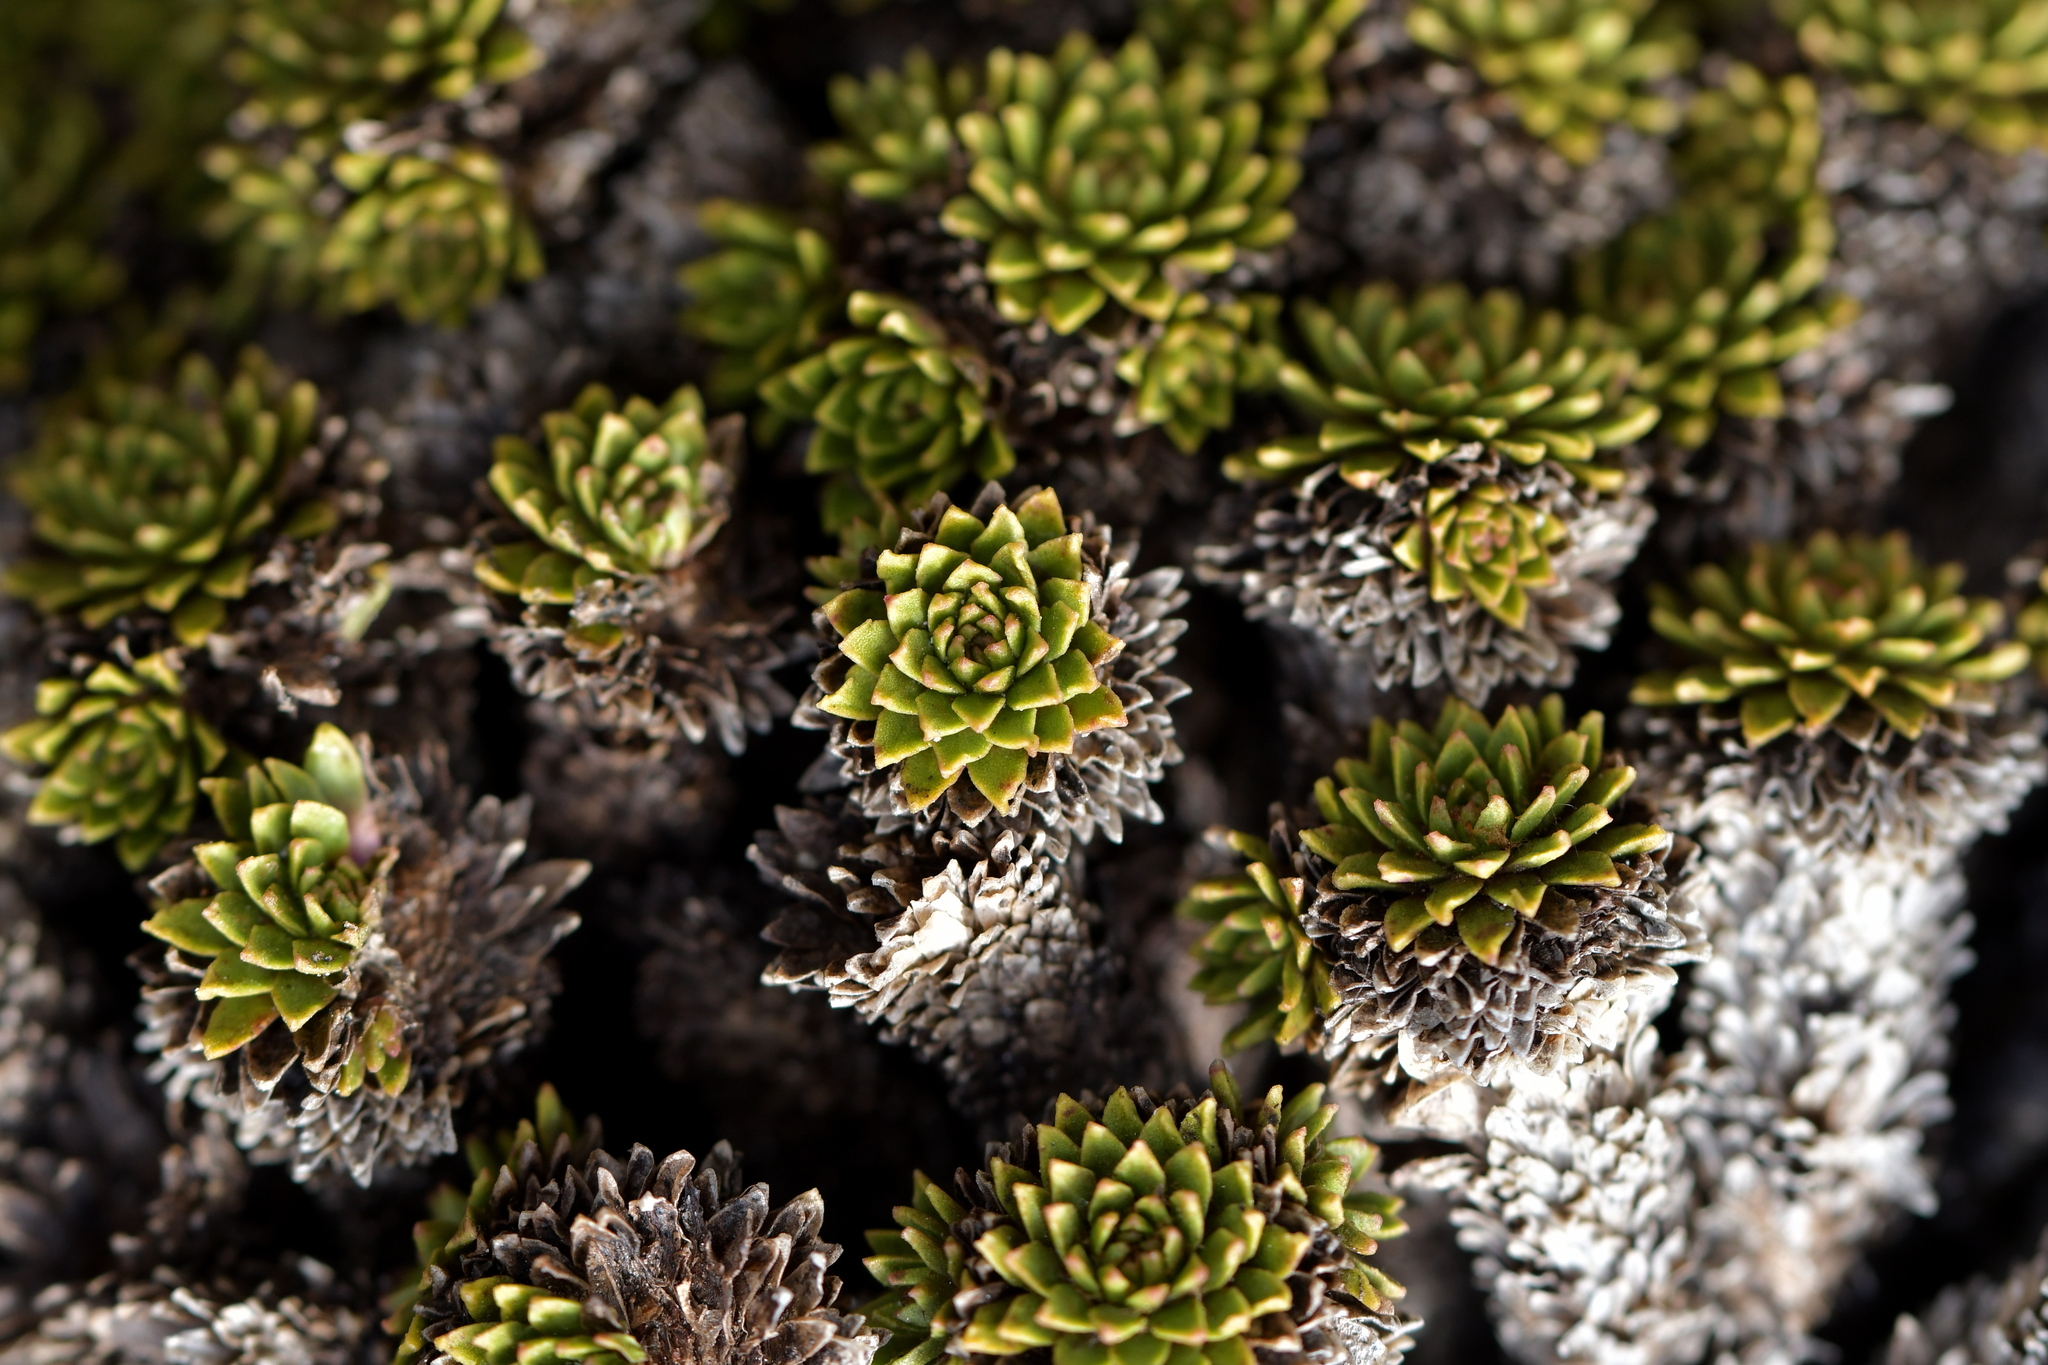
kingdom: Plantae
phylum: Tracheophyta
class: Magnoliopsida
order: Caryophyllales
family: Montiaceae
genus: Hectorella
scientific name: Hectorella caespitosa
